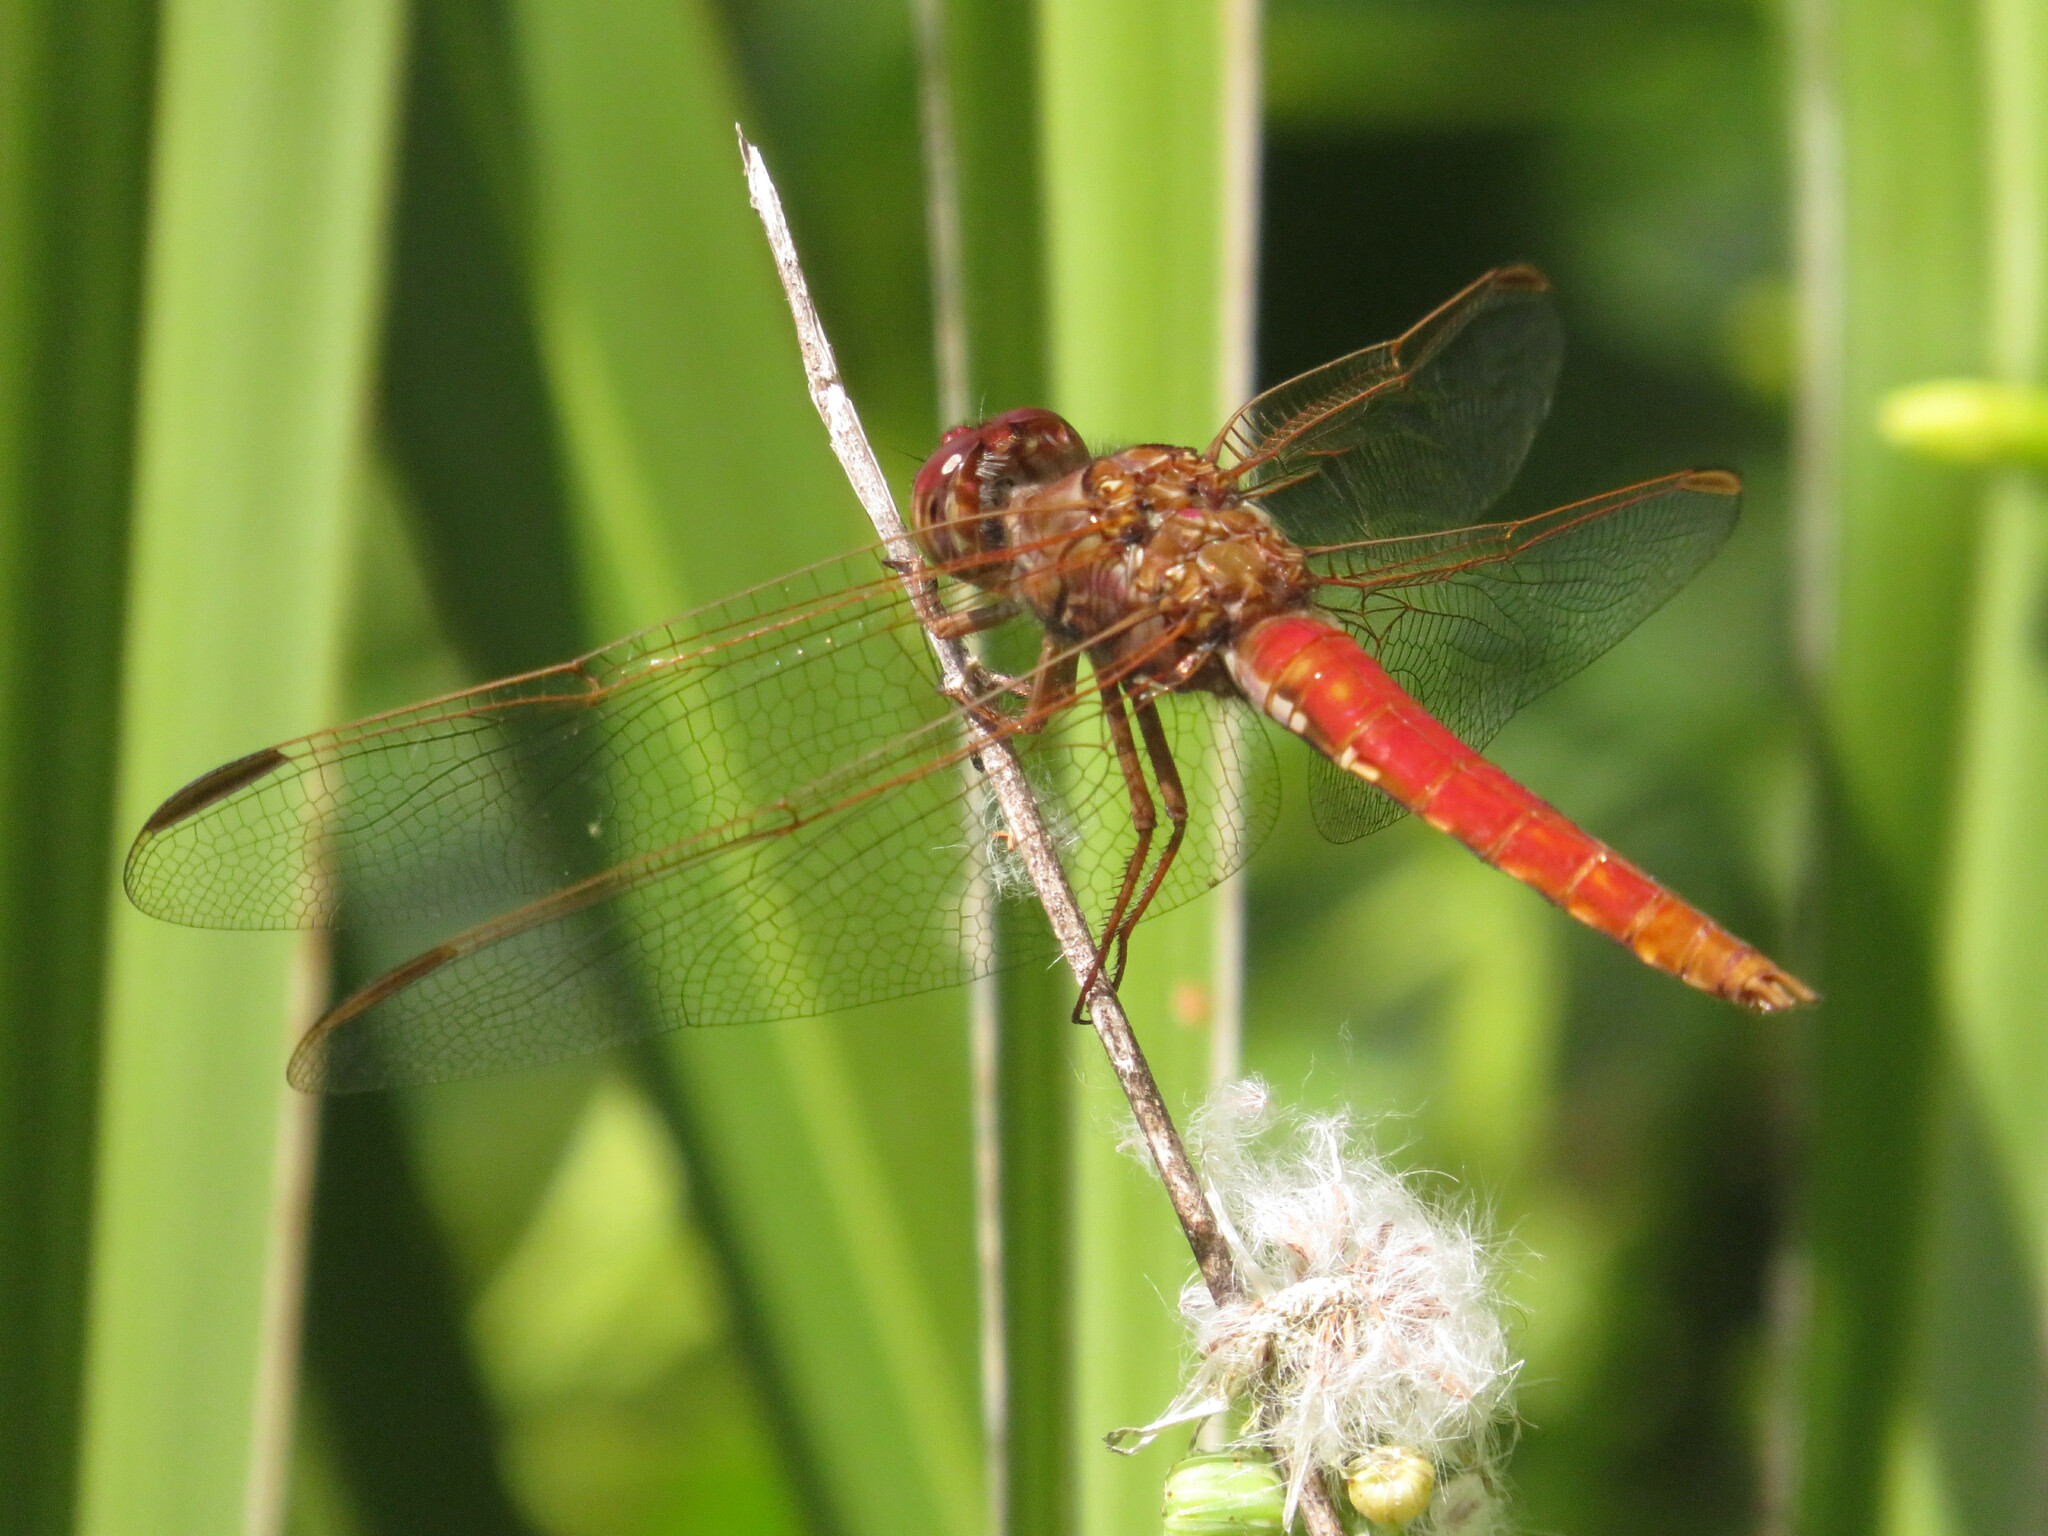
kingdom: Animalia
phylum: Arthropoda
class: Insecta
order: Odonata
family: Libellulidae
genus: Orthemis
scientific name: Orthemis nodiplaga
